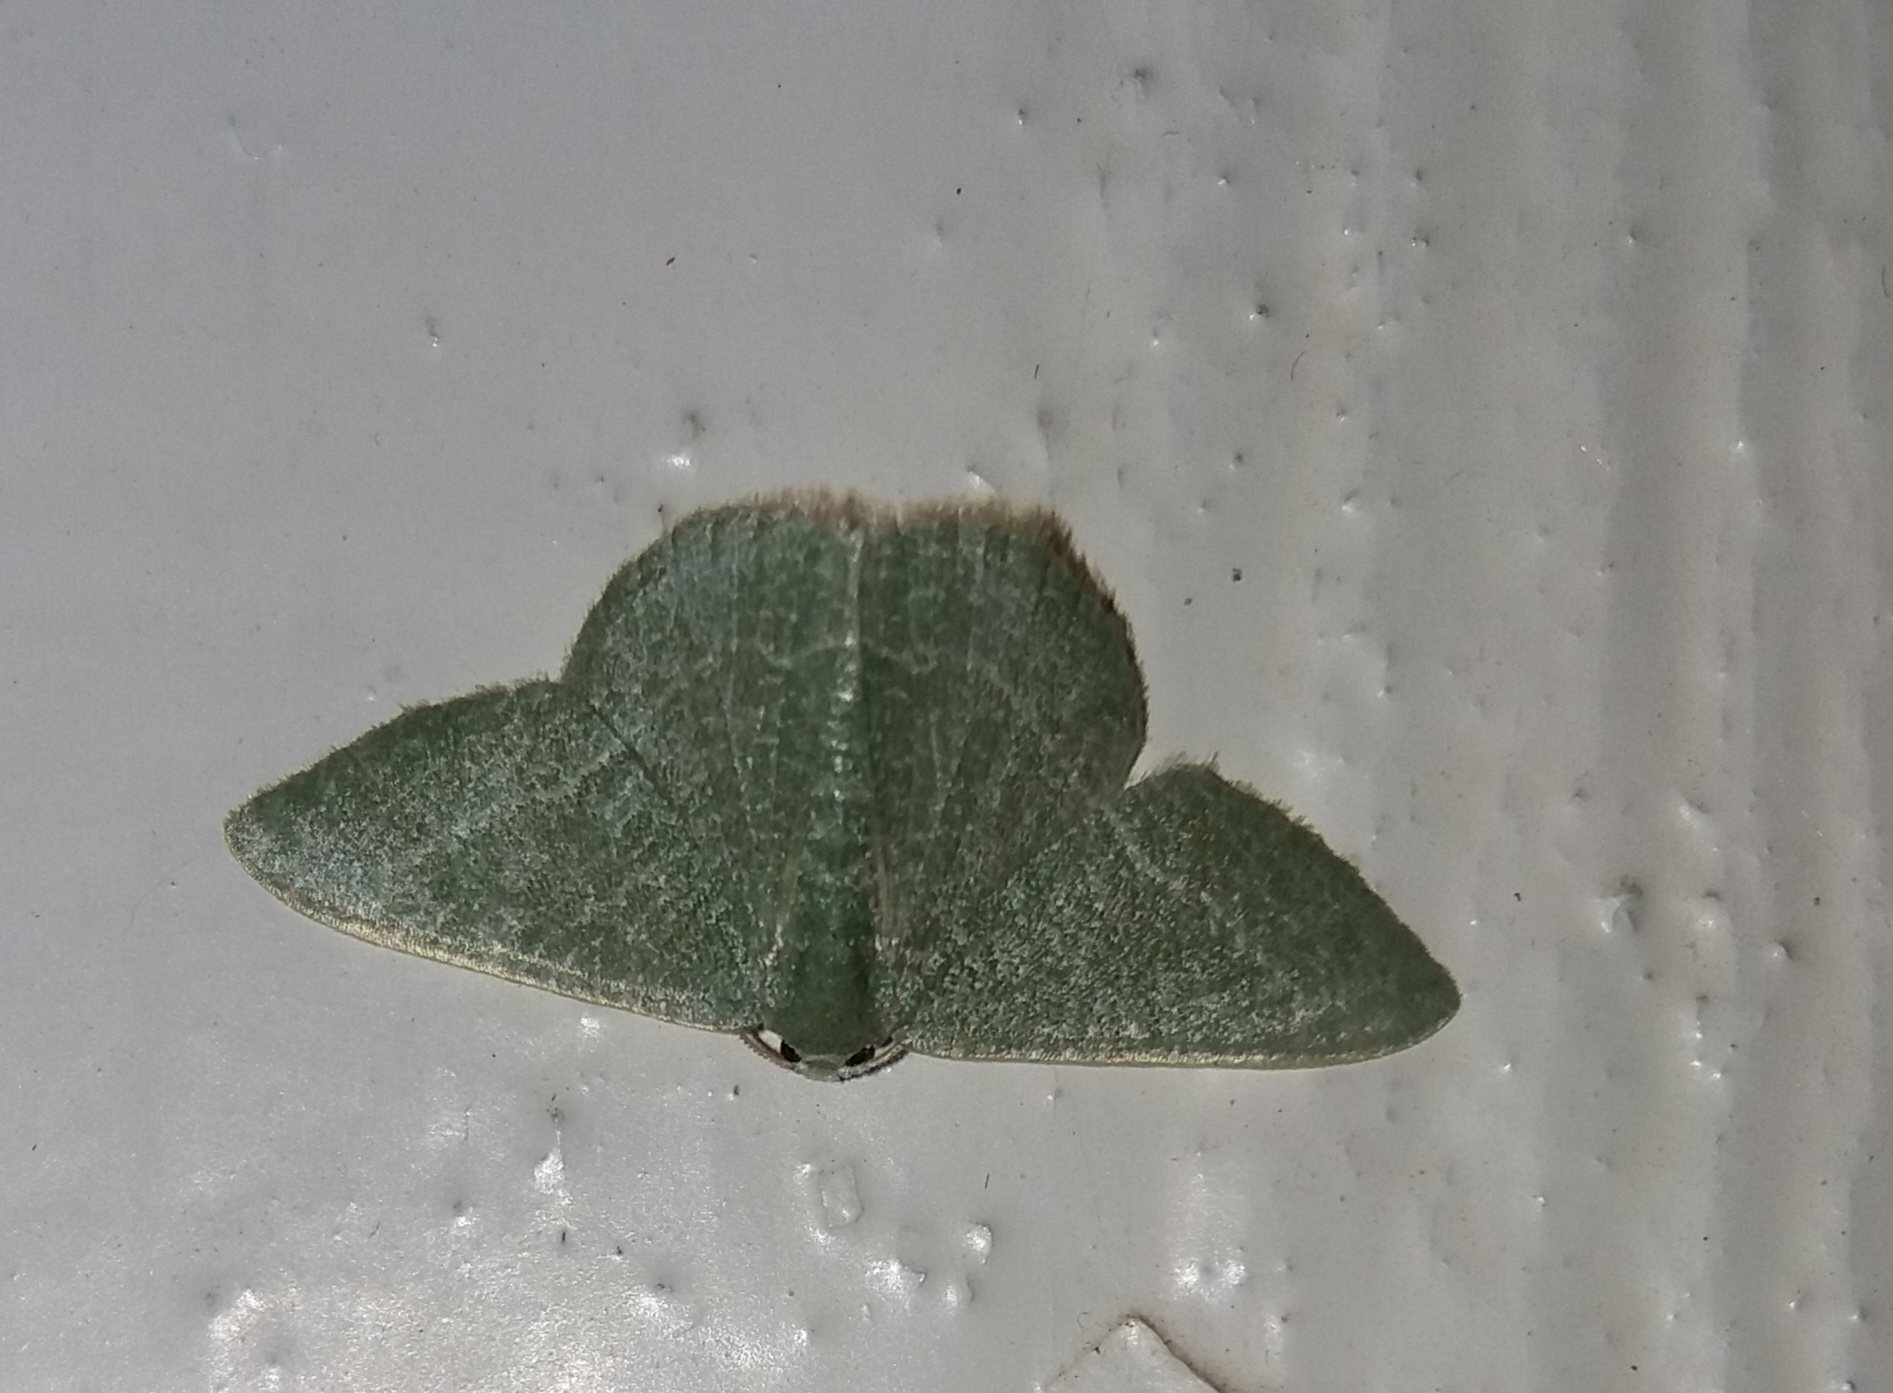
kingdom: Animalia
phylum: Arthropoda
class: Insecta
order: Lepidoptera
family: Geometridae
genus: Chlorissa
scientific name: Chlorissa etruscaria
